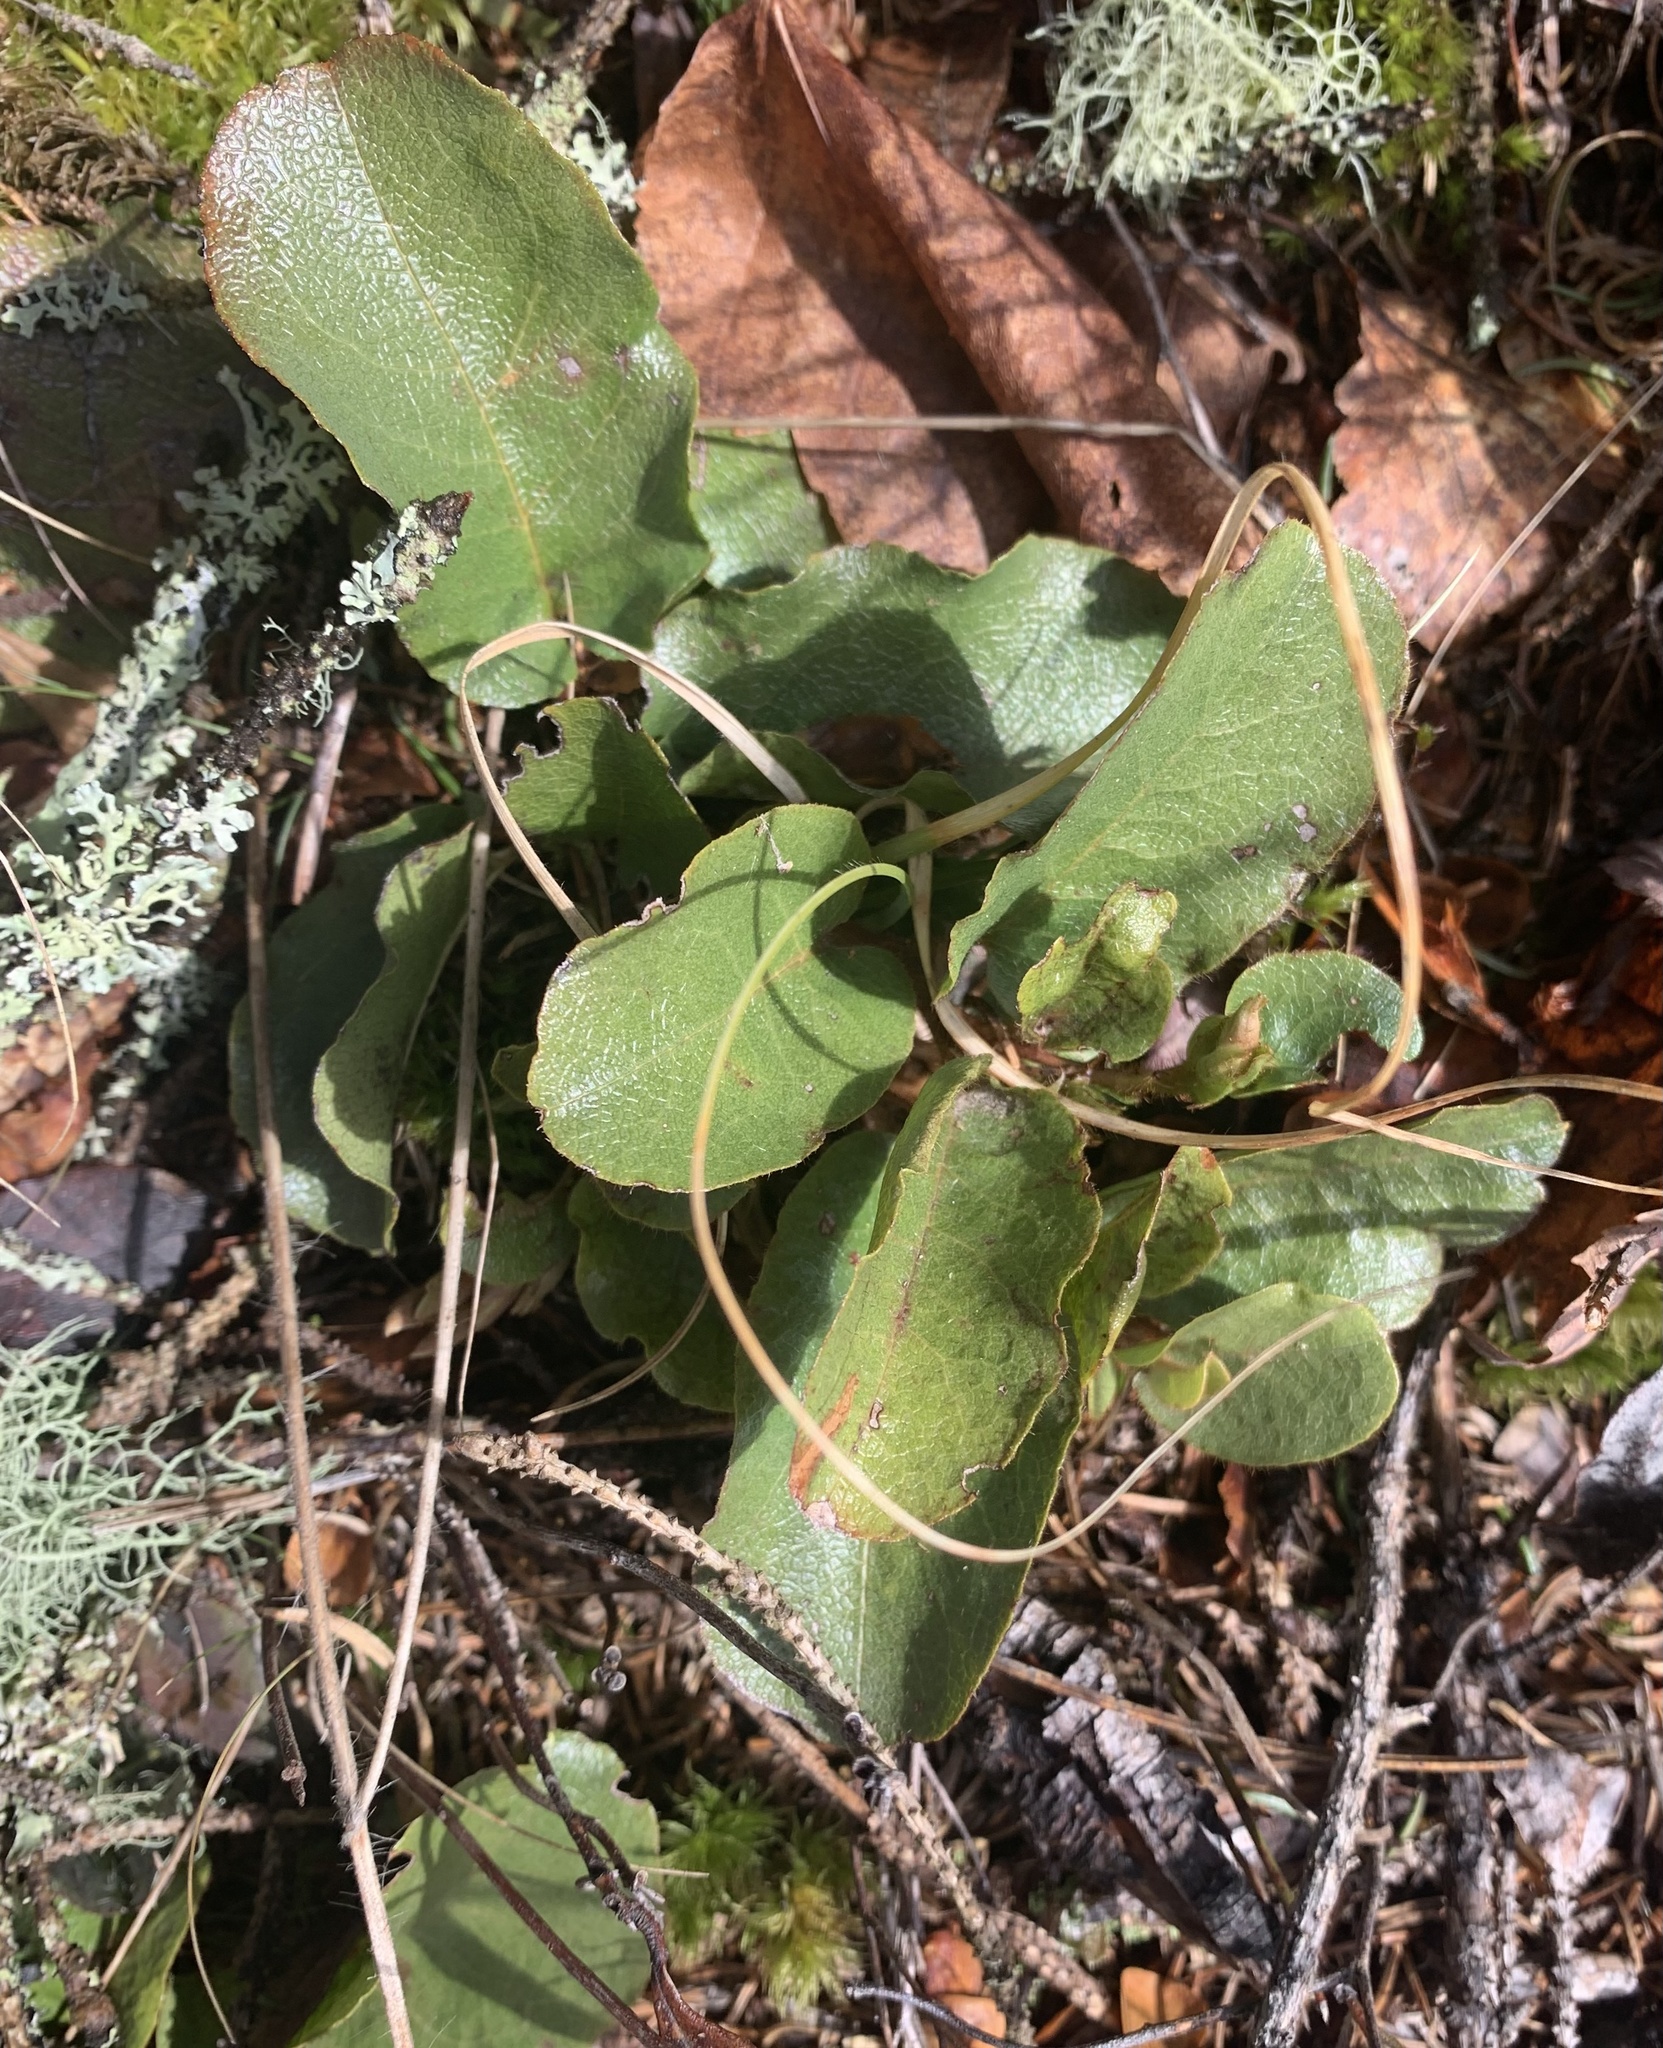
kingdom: Plantae
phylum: Tracheophyta
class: Magnoliopsida
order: Ericales
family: Ericaceae
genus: Epigaea
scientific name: Epigaea repens
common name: Gravelroot
